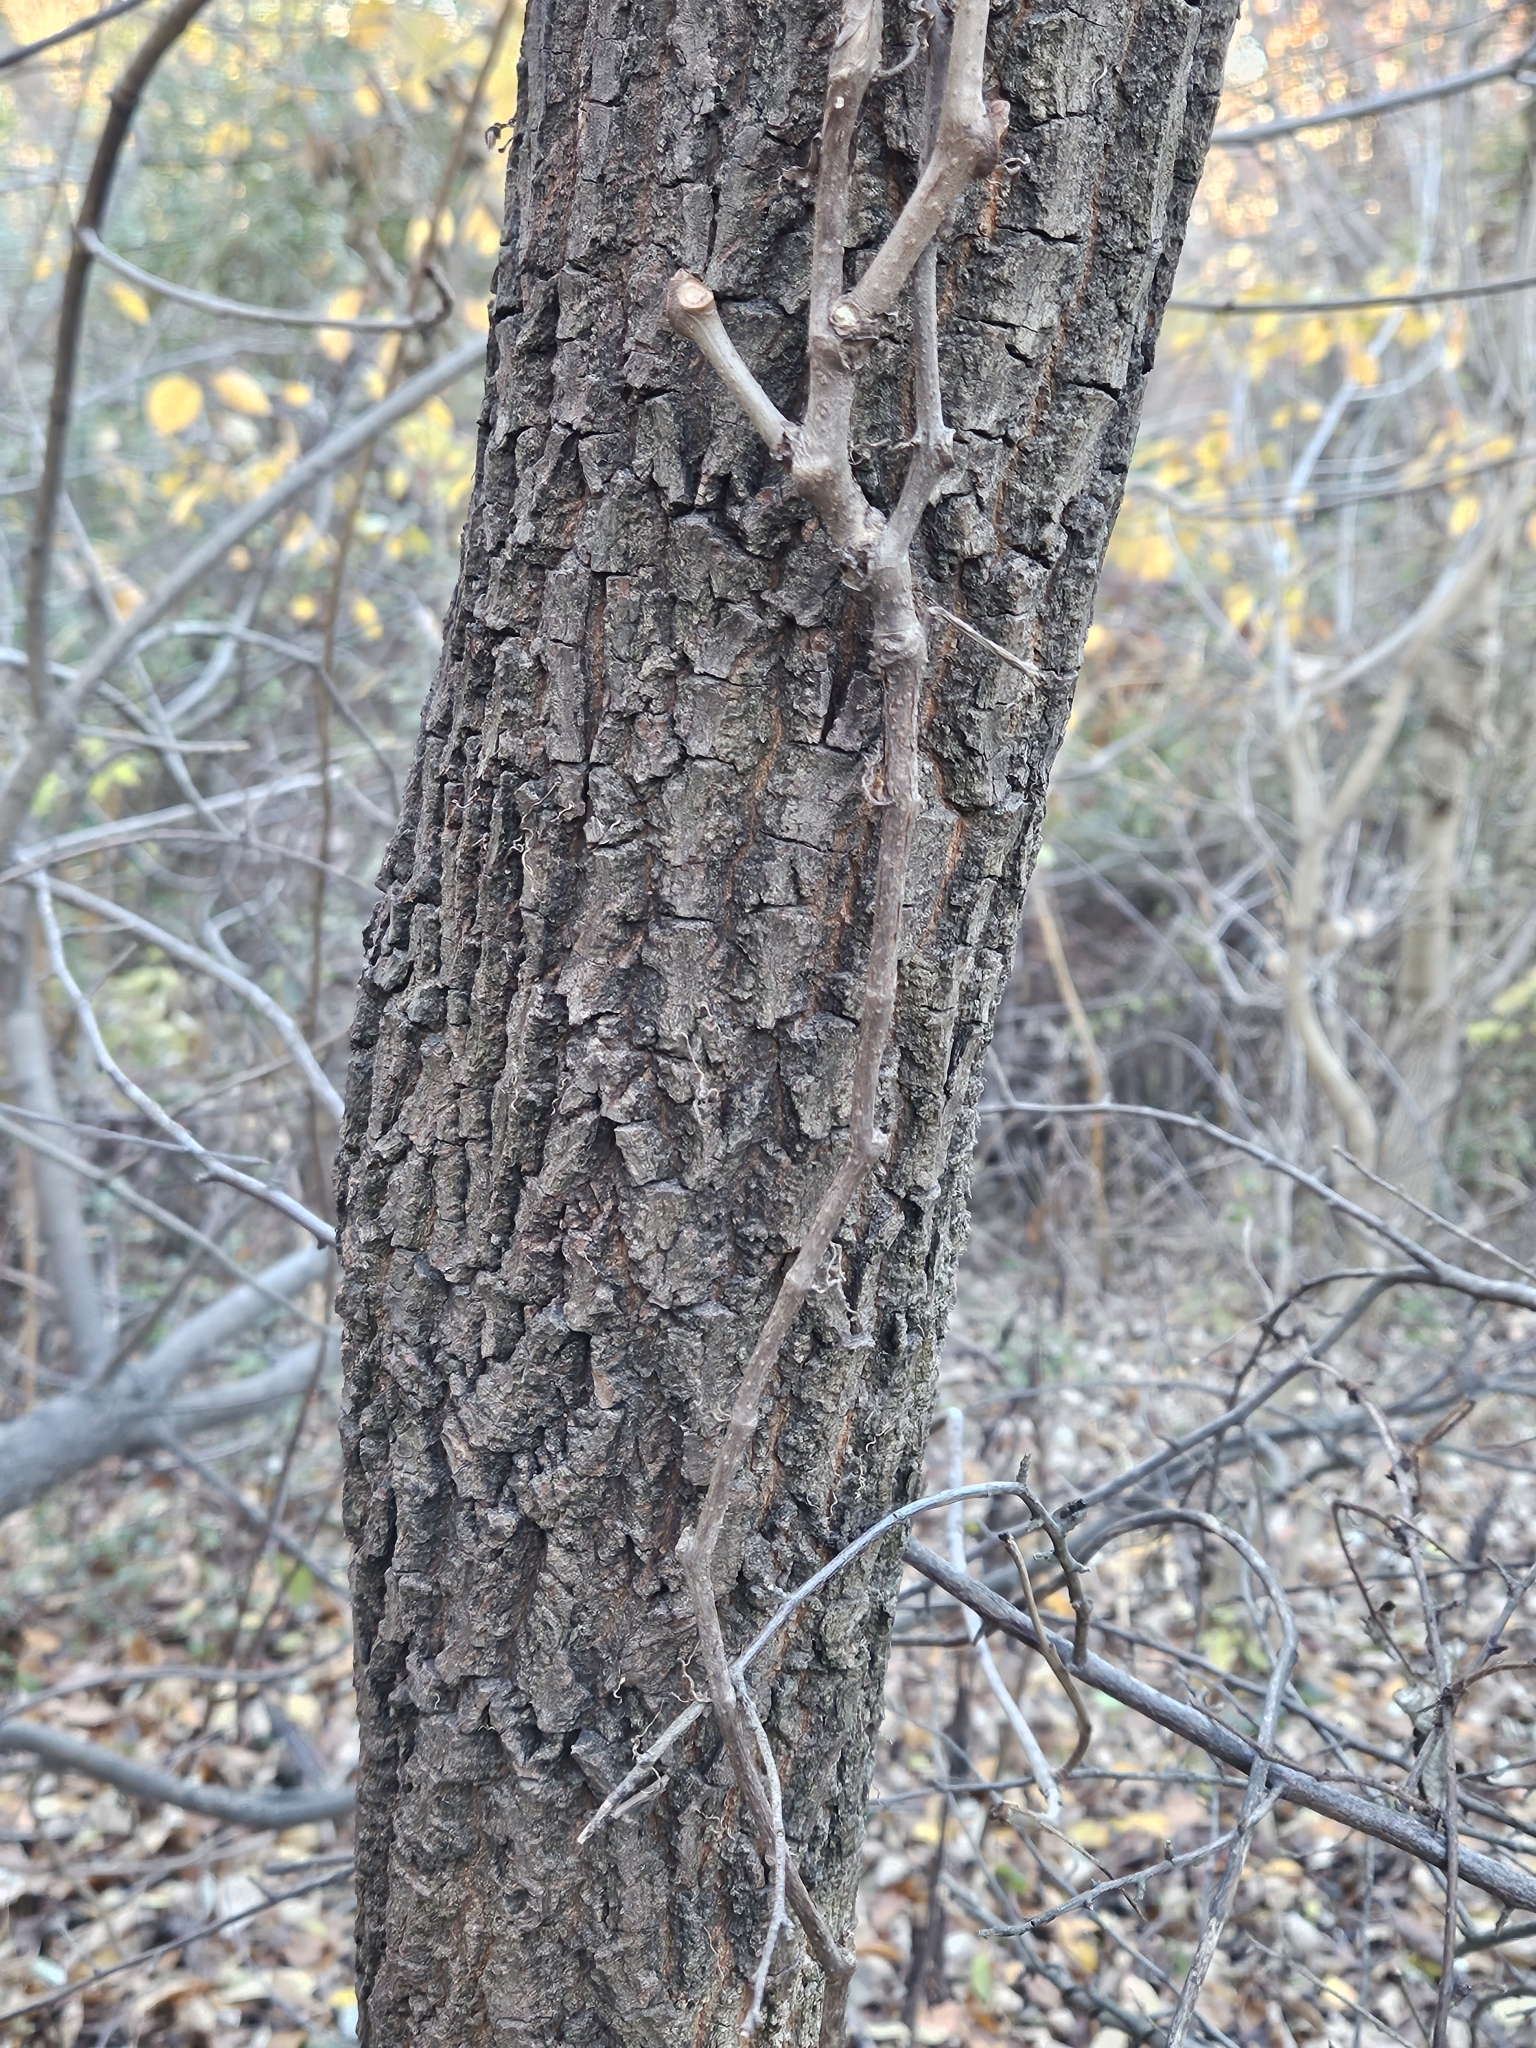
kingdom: Plantae
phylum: Tracheophyta
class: Magnoliopsida
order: Ericales
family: Ebenaceae
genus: Diospyros
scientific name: Diospyros virginiana
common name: Persimmon
